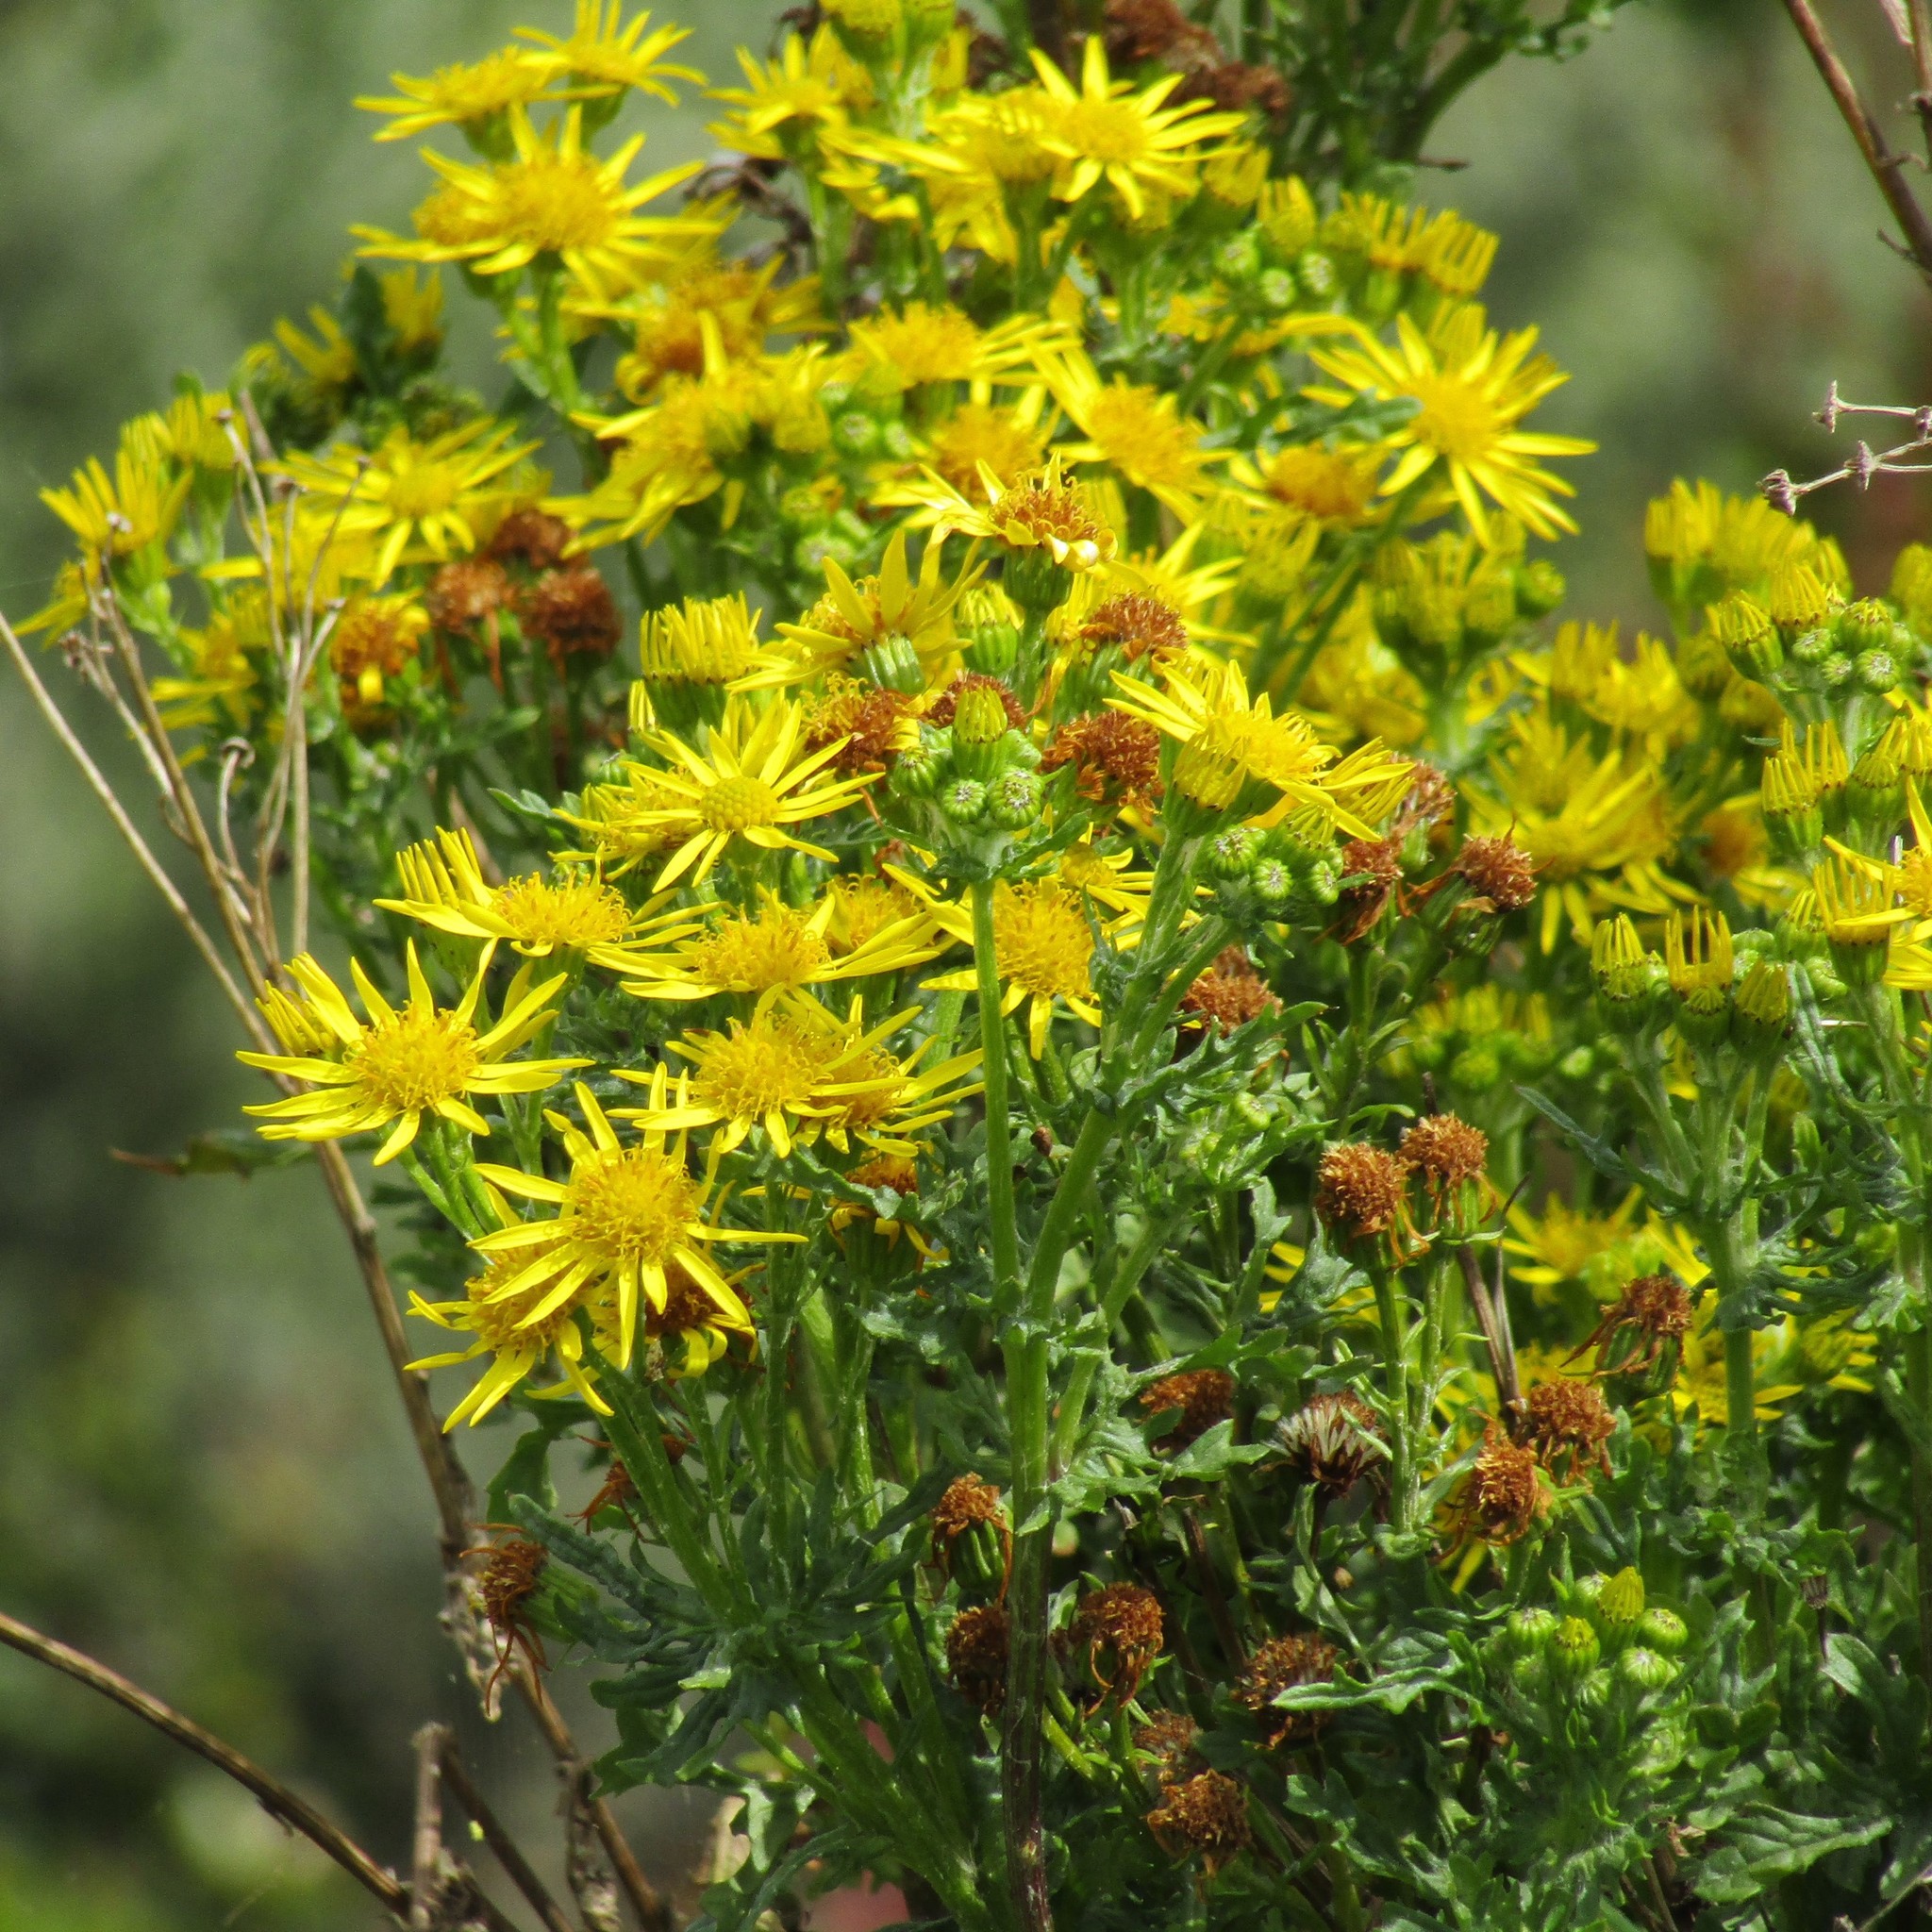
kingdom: Plantae
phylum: Tracheophyta
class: Magnoliopsida
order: Asterales
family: Asteraceae
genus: Jacobaea
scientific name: Jacobaea vulgaris
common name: Stinking willie
